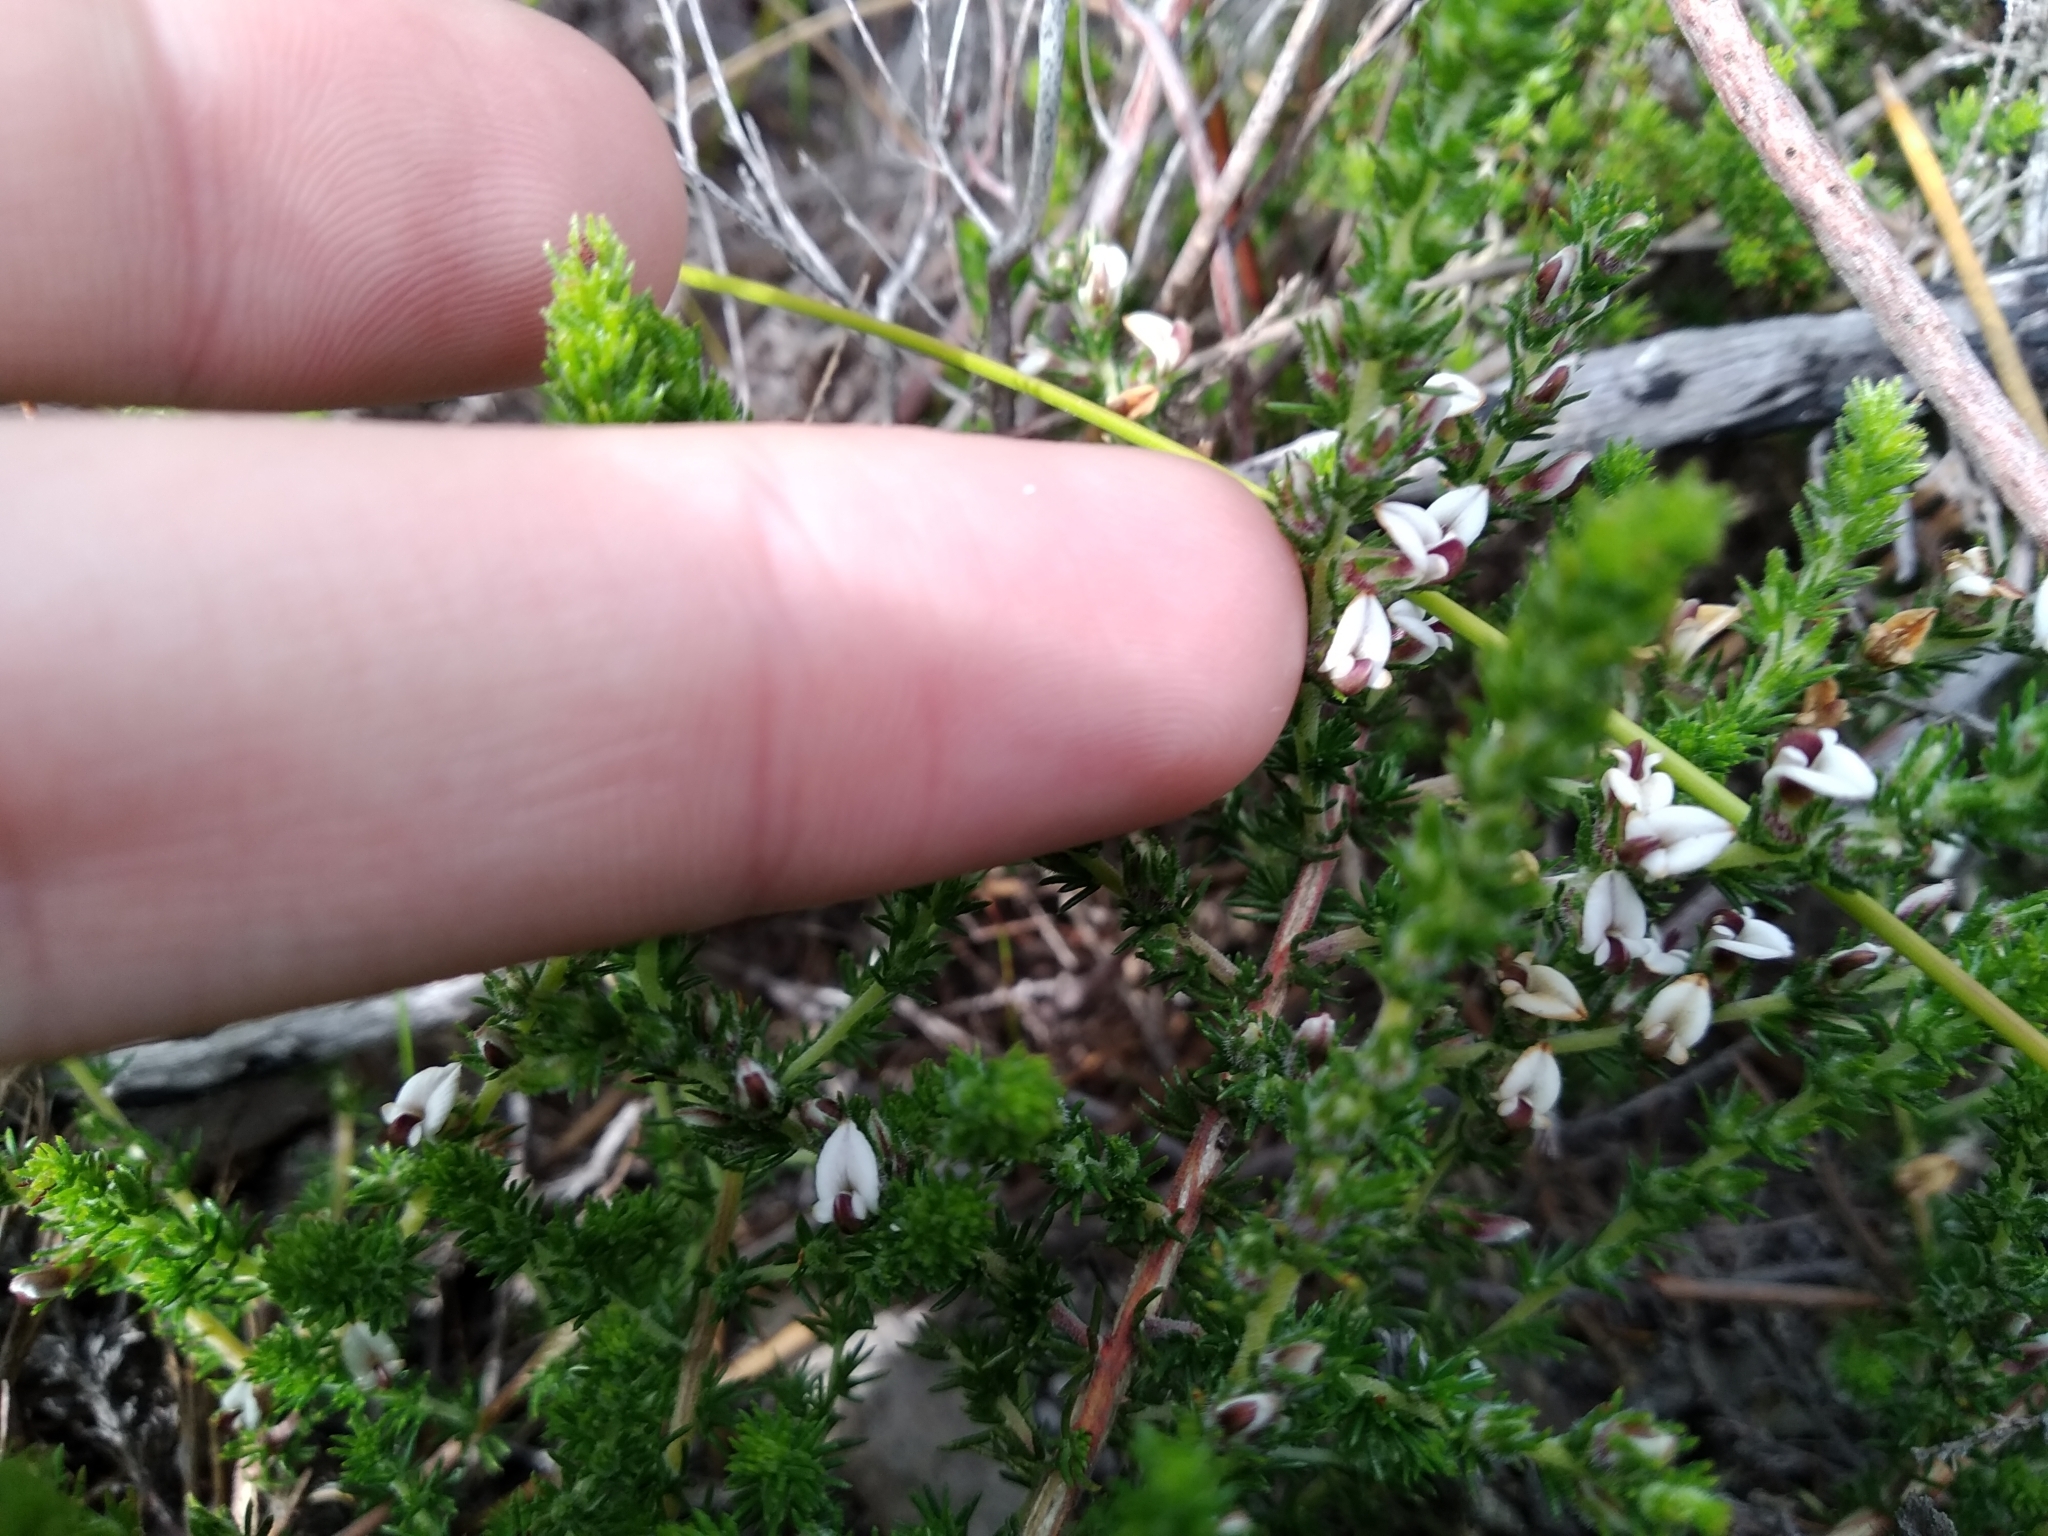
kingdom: Plantae
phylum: Tracheophyta
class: Magnoliopsida
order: Fabales
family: Fabaceae
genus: Aspalathus
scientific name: Aspalathus hispida
